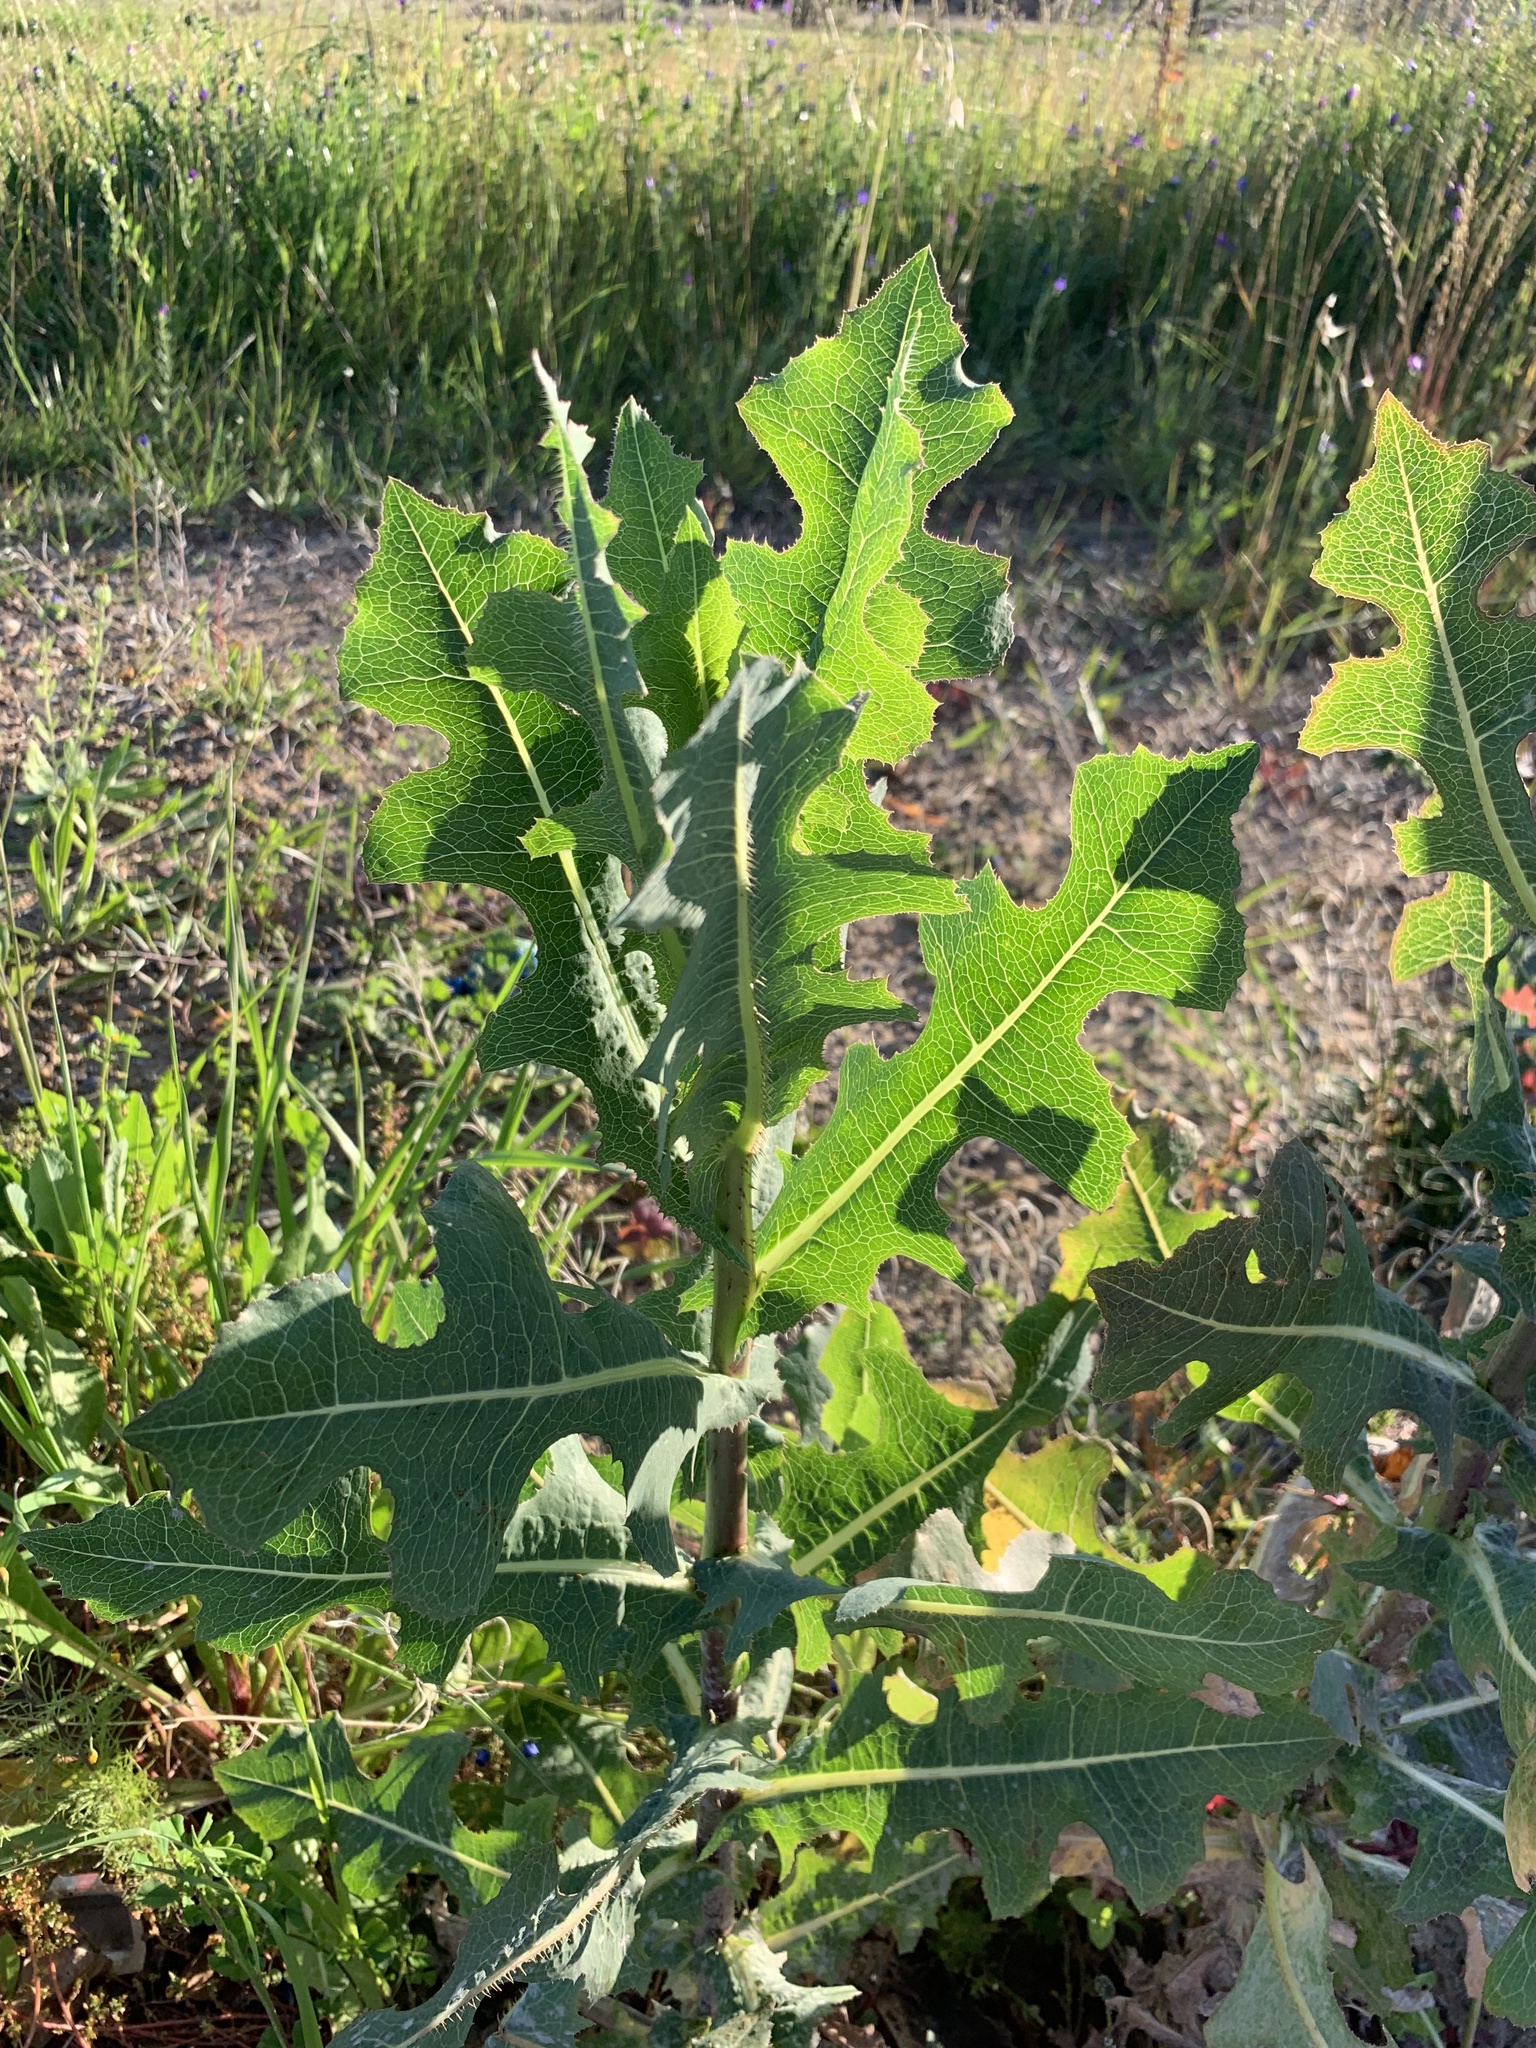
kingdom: Plantae
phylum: Tracheophyta
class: Magnoliopsida
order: Asterales
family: Asteraceae
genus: Lactuca
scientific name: Lactuca serriola
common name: Prickly lettuce
